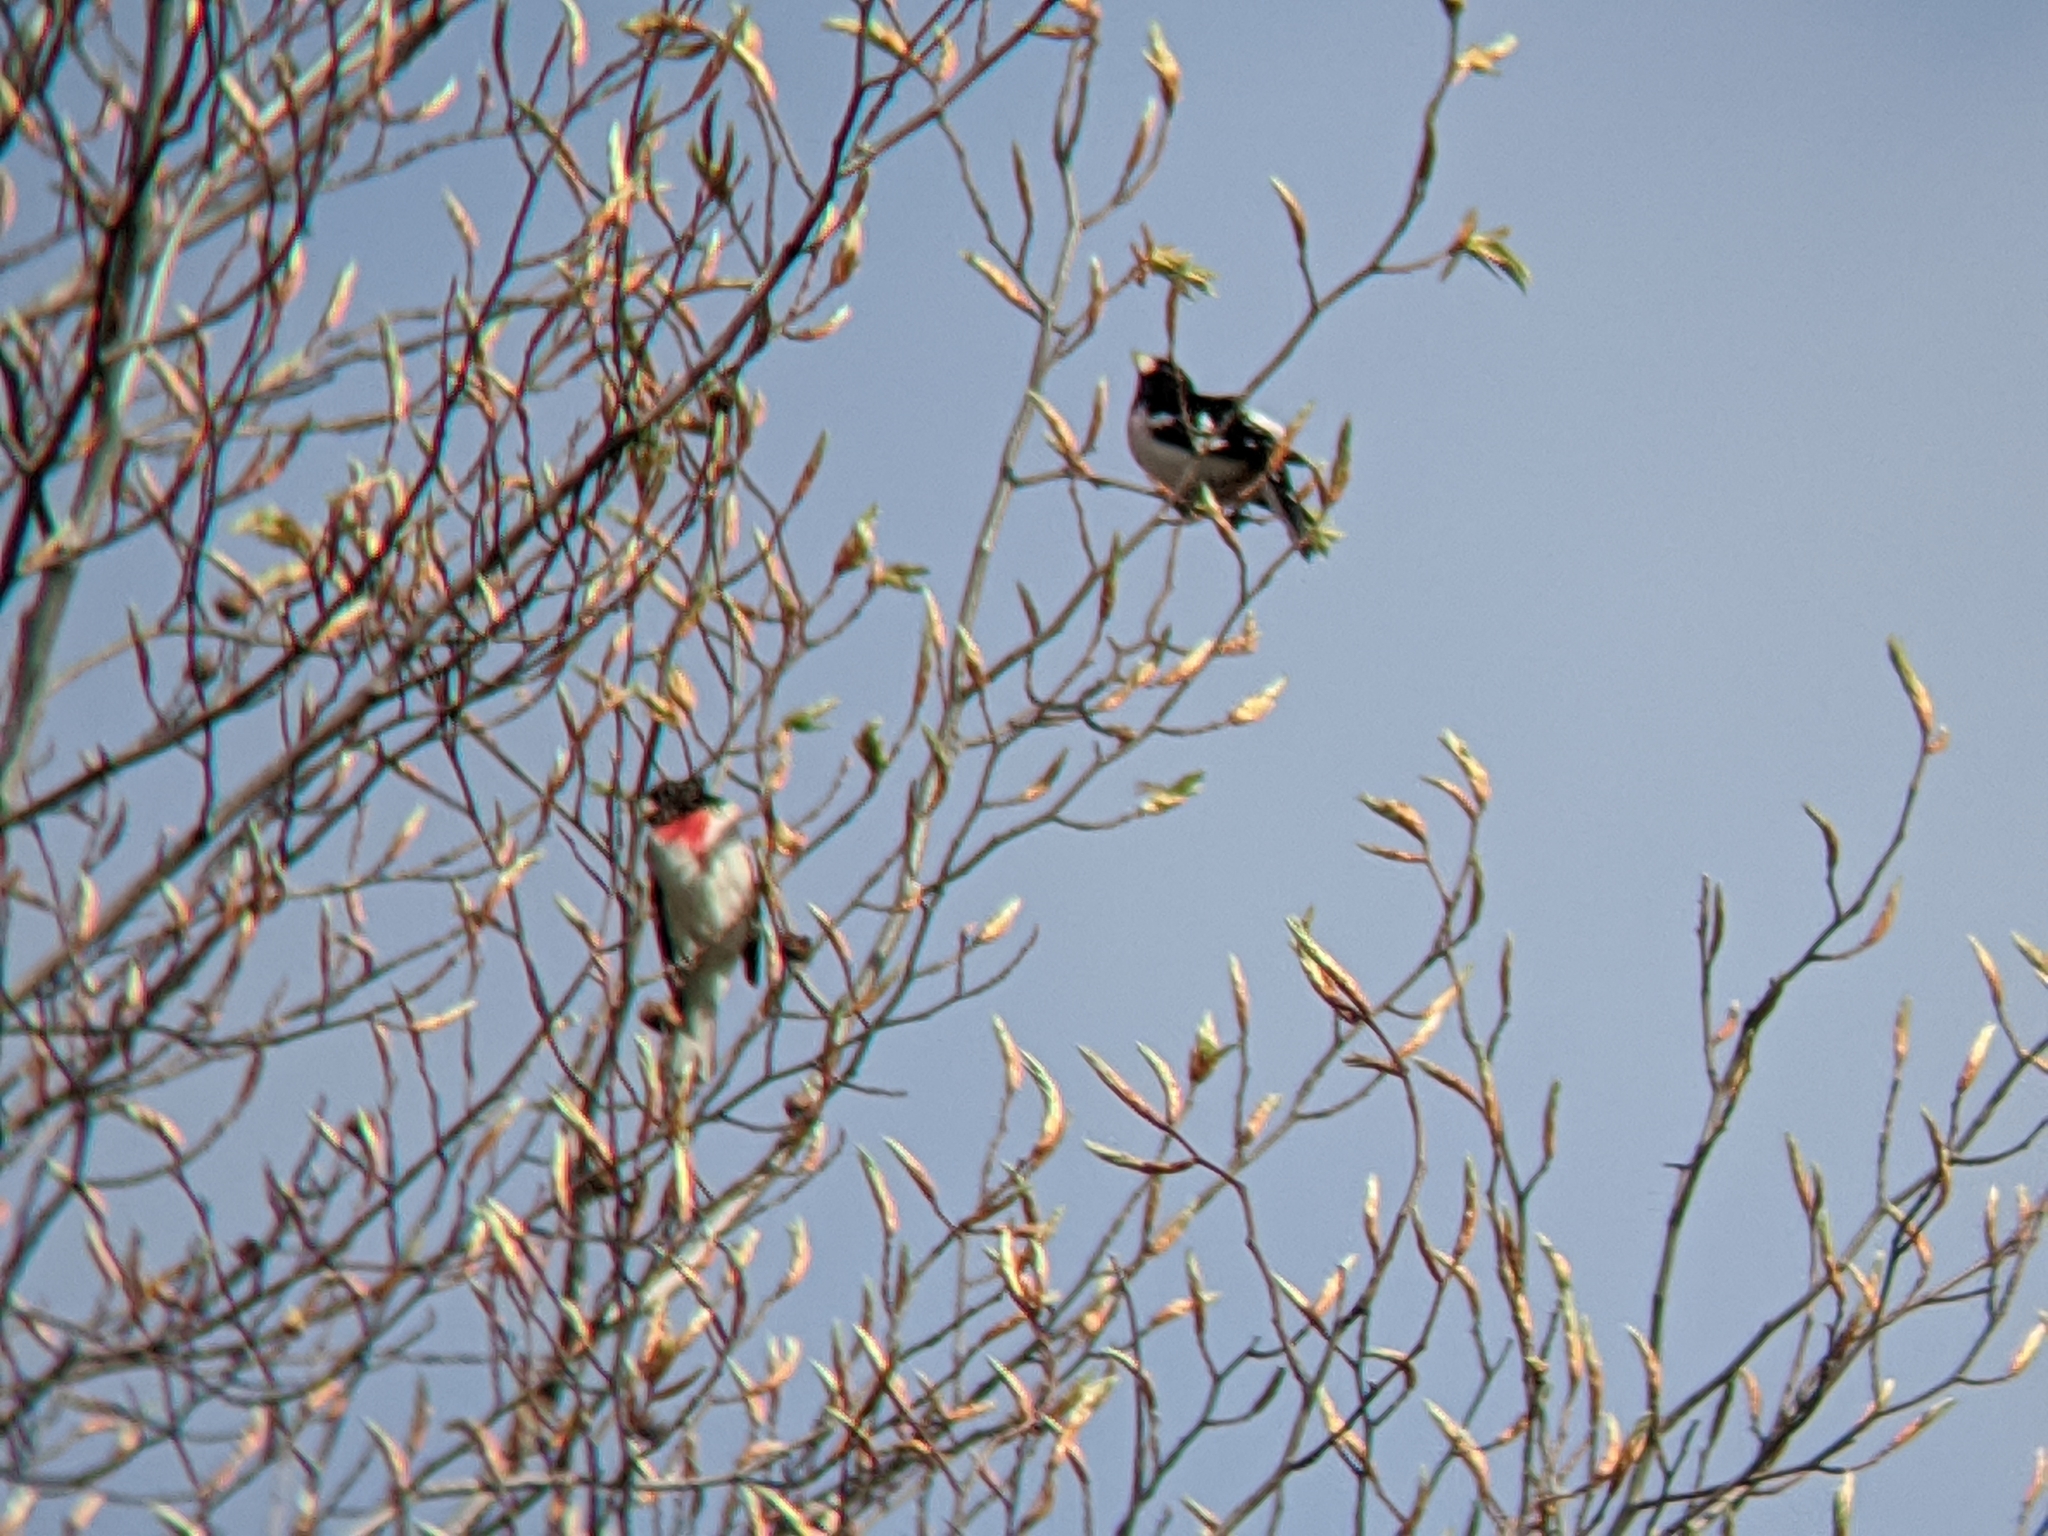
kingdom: Animalia
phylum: Chordata
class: Aves
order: Passeriformes
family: Cardinalidae
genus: Pheucticus
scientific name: Pheucticus ludovicianus
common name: Rose-breasted grosbeak
